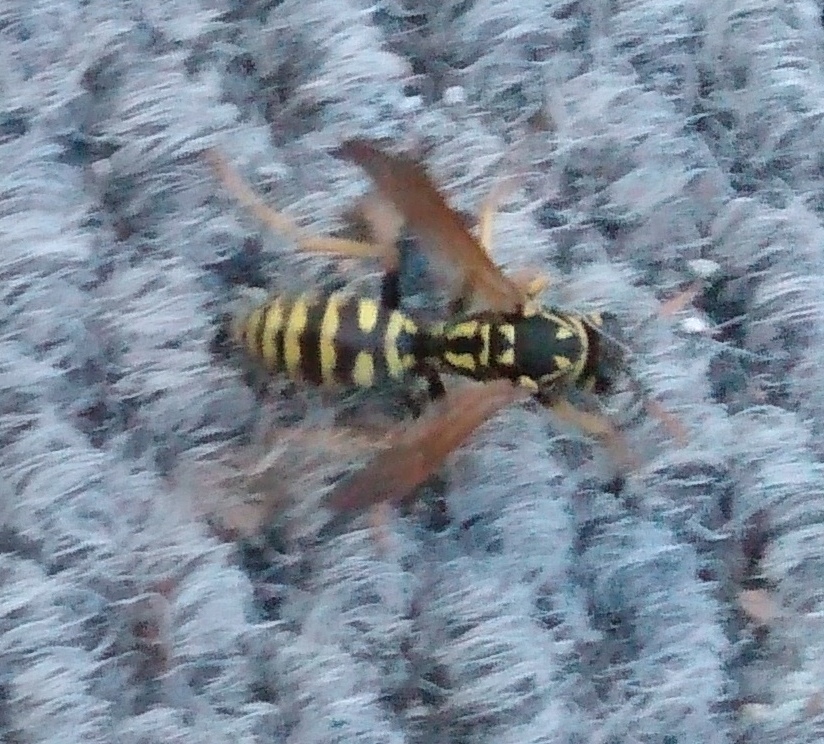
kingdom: Animalia
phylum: Arthropoda
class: Insecta
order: Hymenoptera
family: Eumenidae
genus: Polistes
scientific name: Polistes dominula
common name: Paper wasp
